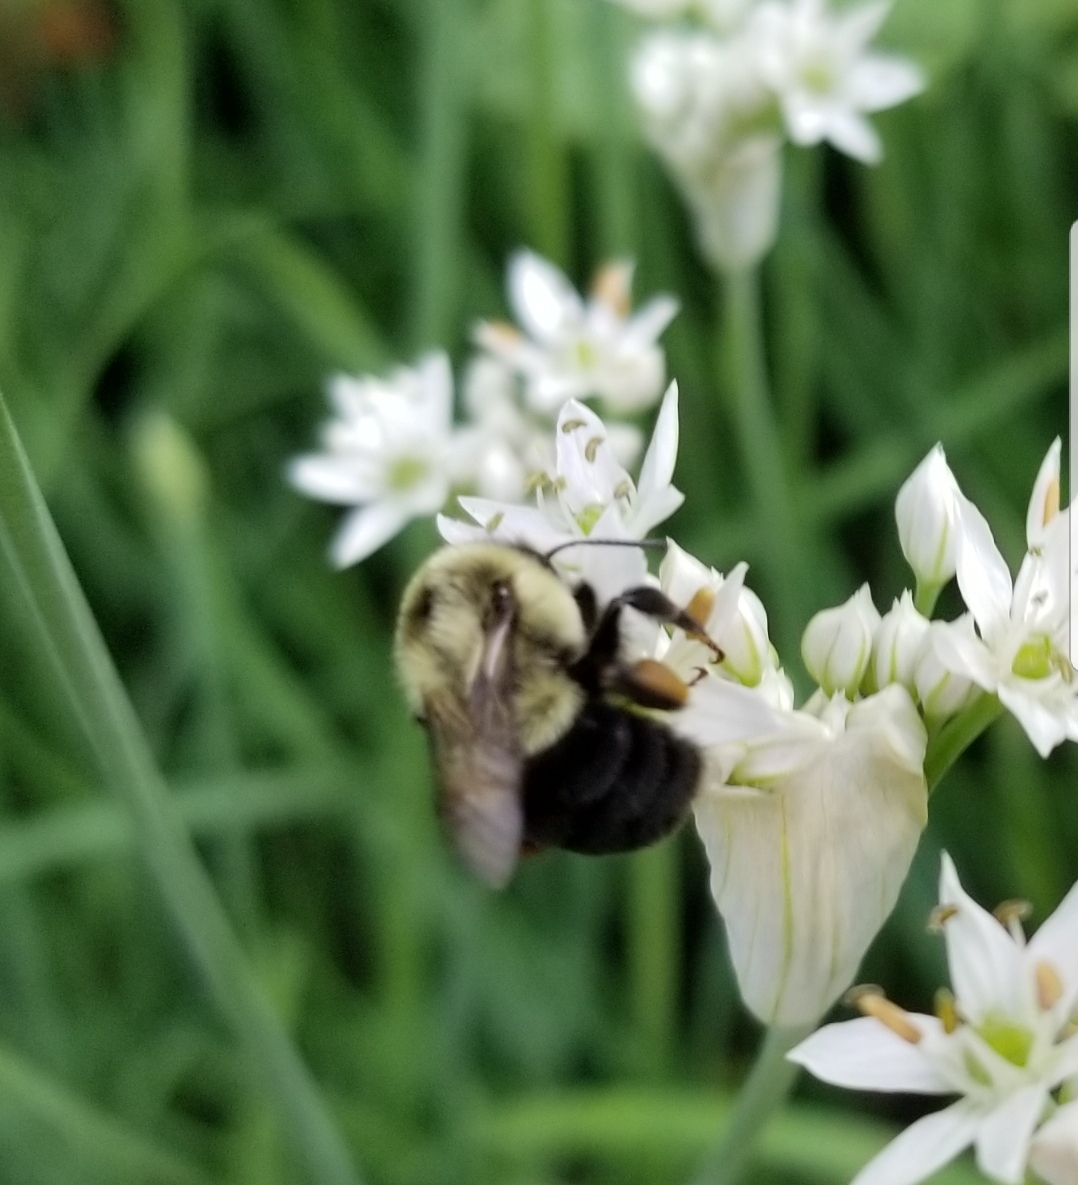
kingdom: Animalia
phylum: Arthropoda
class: Insecta
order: Hymenoptera
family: Apidae
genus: Bombus
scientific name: Bombus impatiens
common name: Common eastern bumble bee
